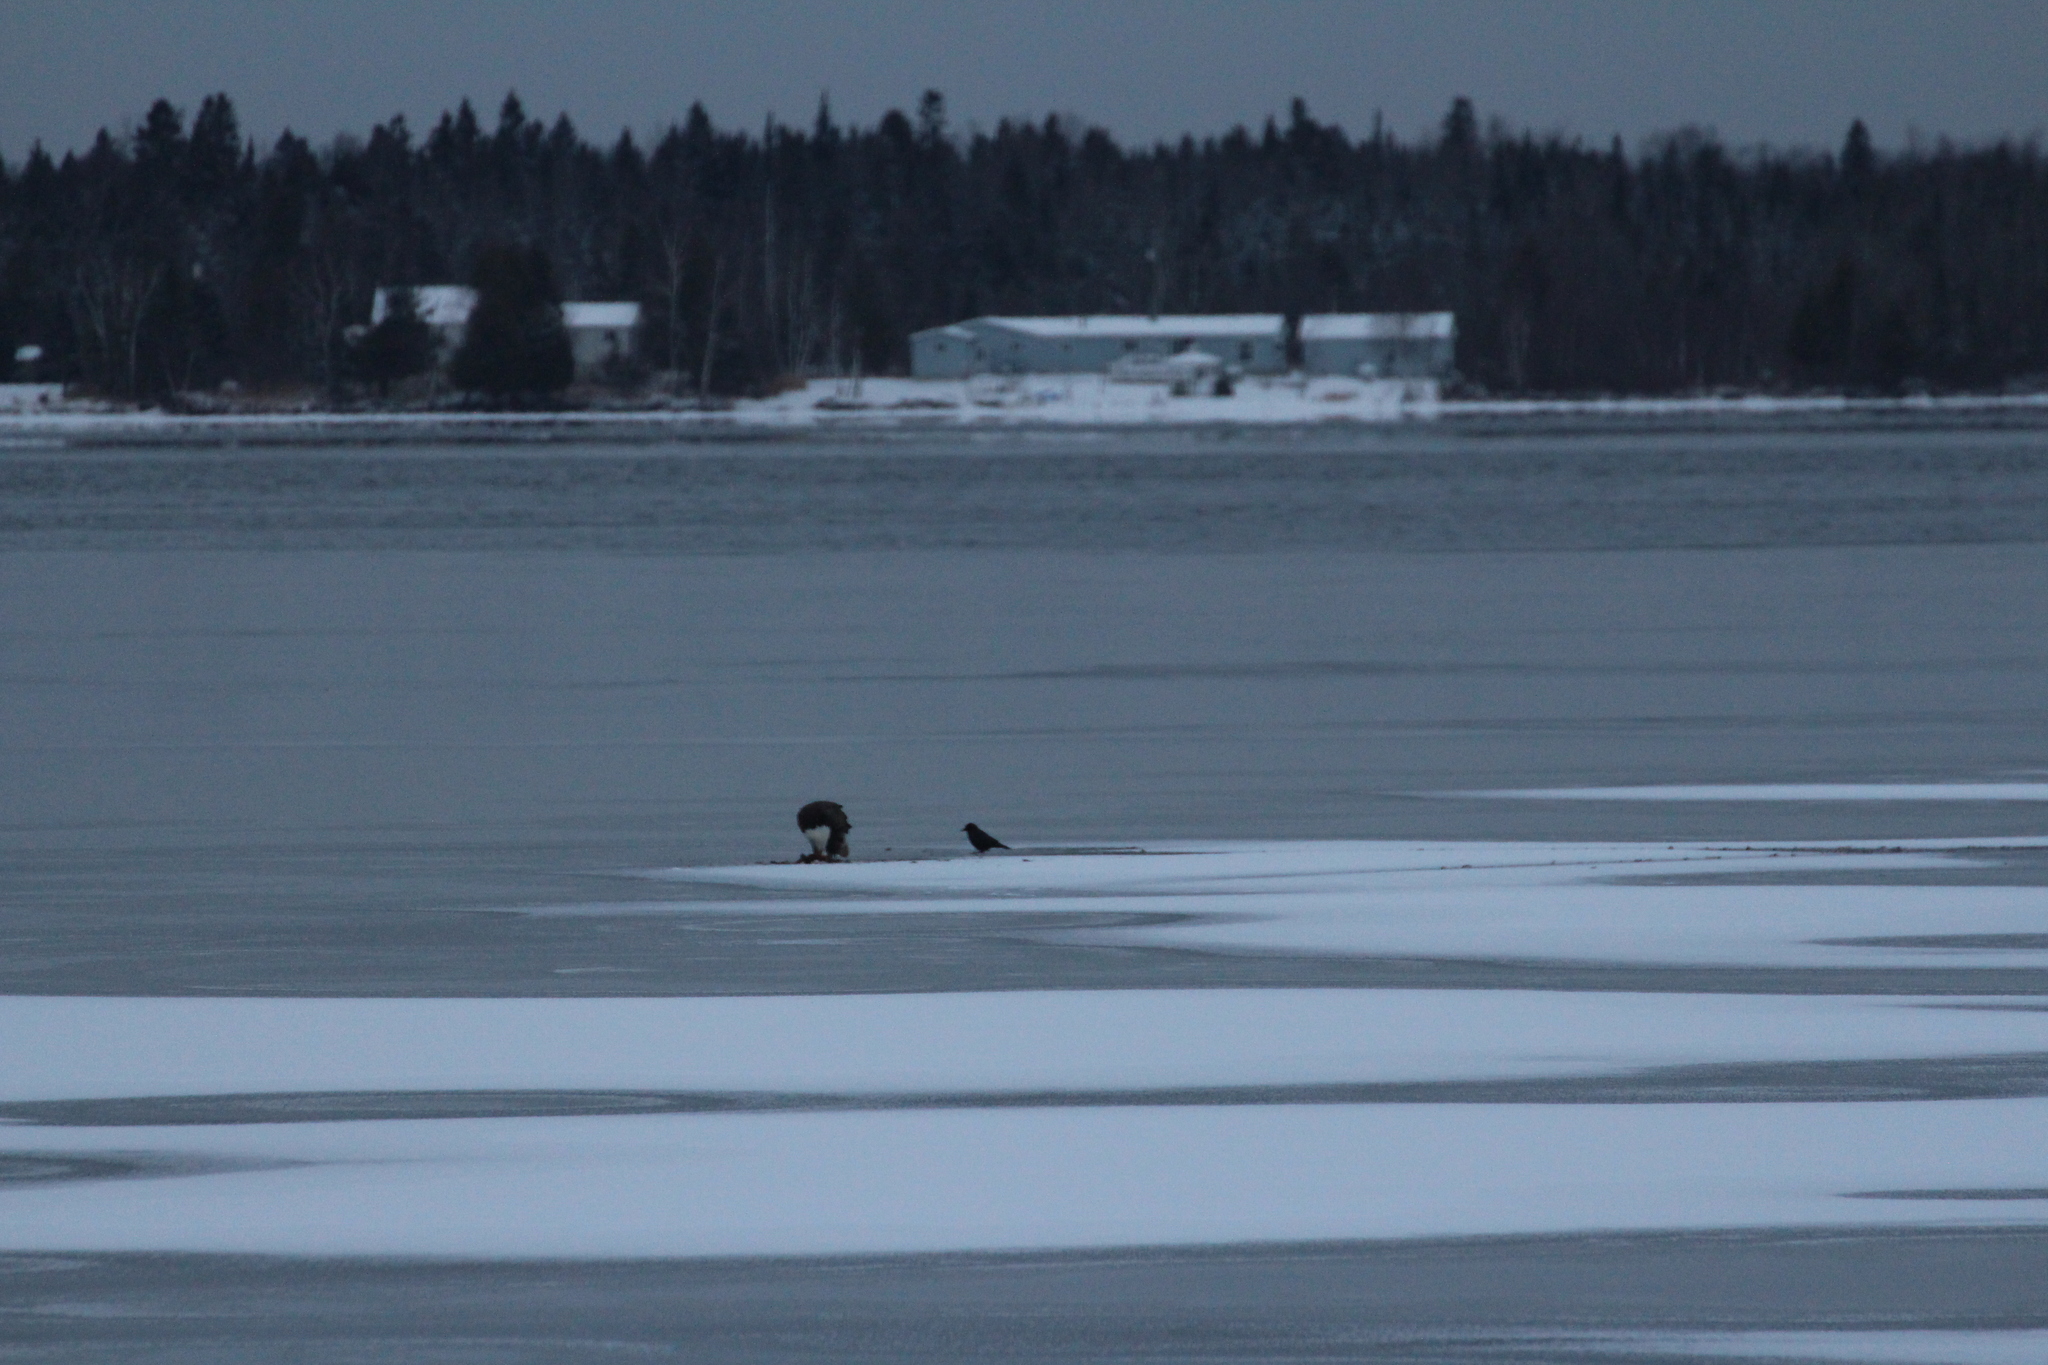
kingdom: Animalia
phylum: Chordata
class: Aves
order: Accipitriformes
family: Accipitridae
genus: Haliaeetus
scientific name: Haliaeetus leucocephalus
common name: Bald eagle
